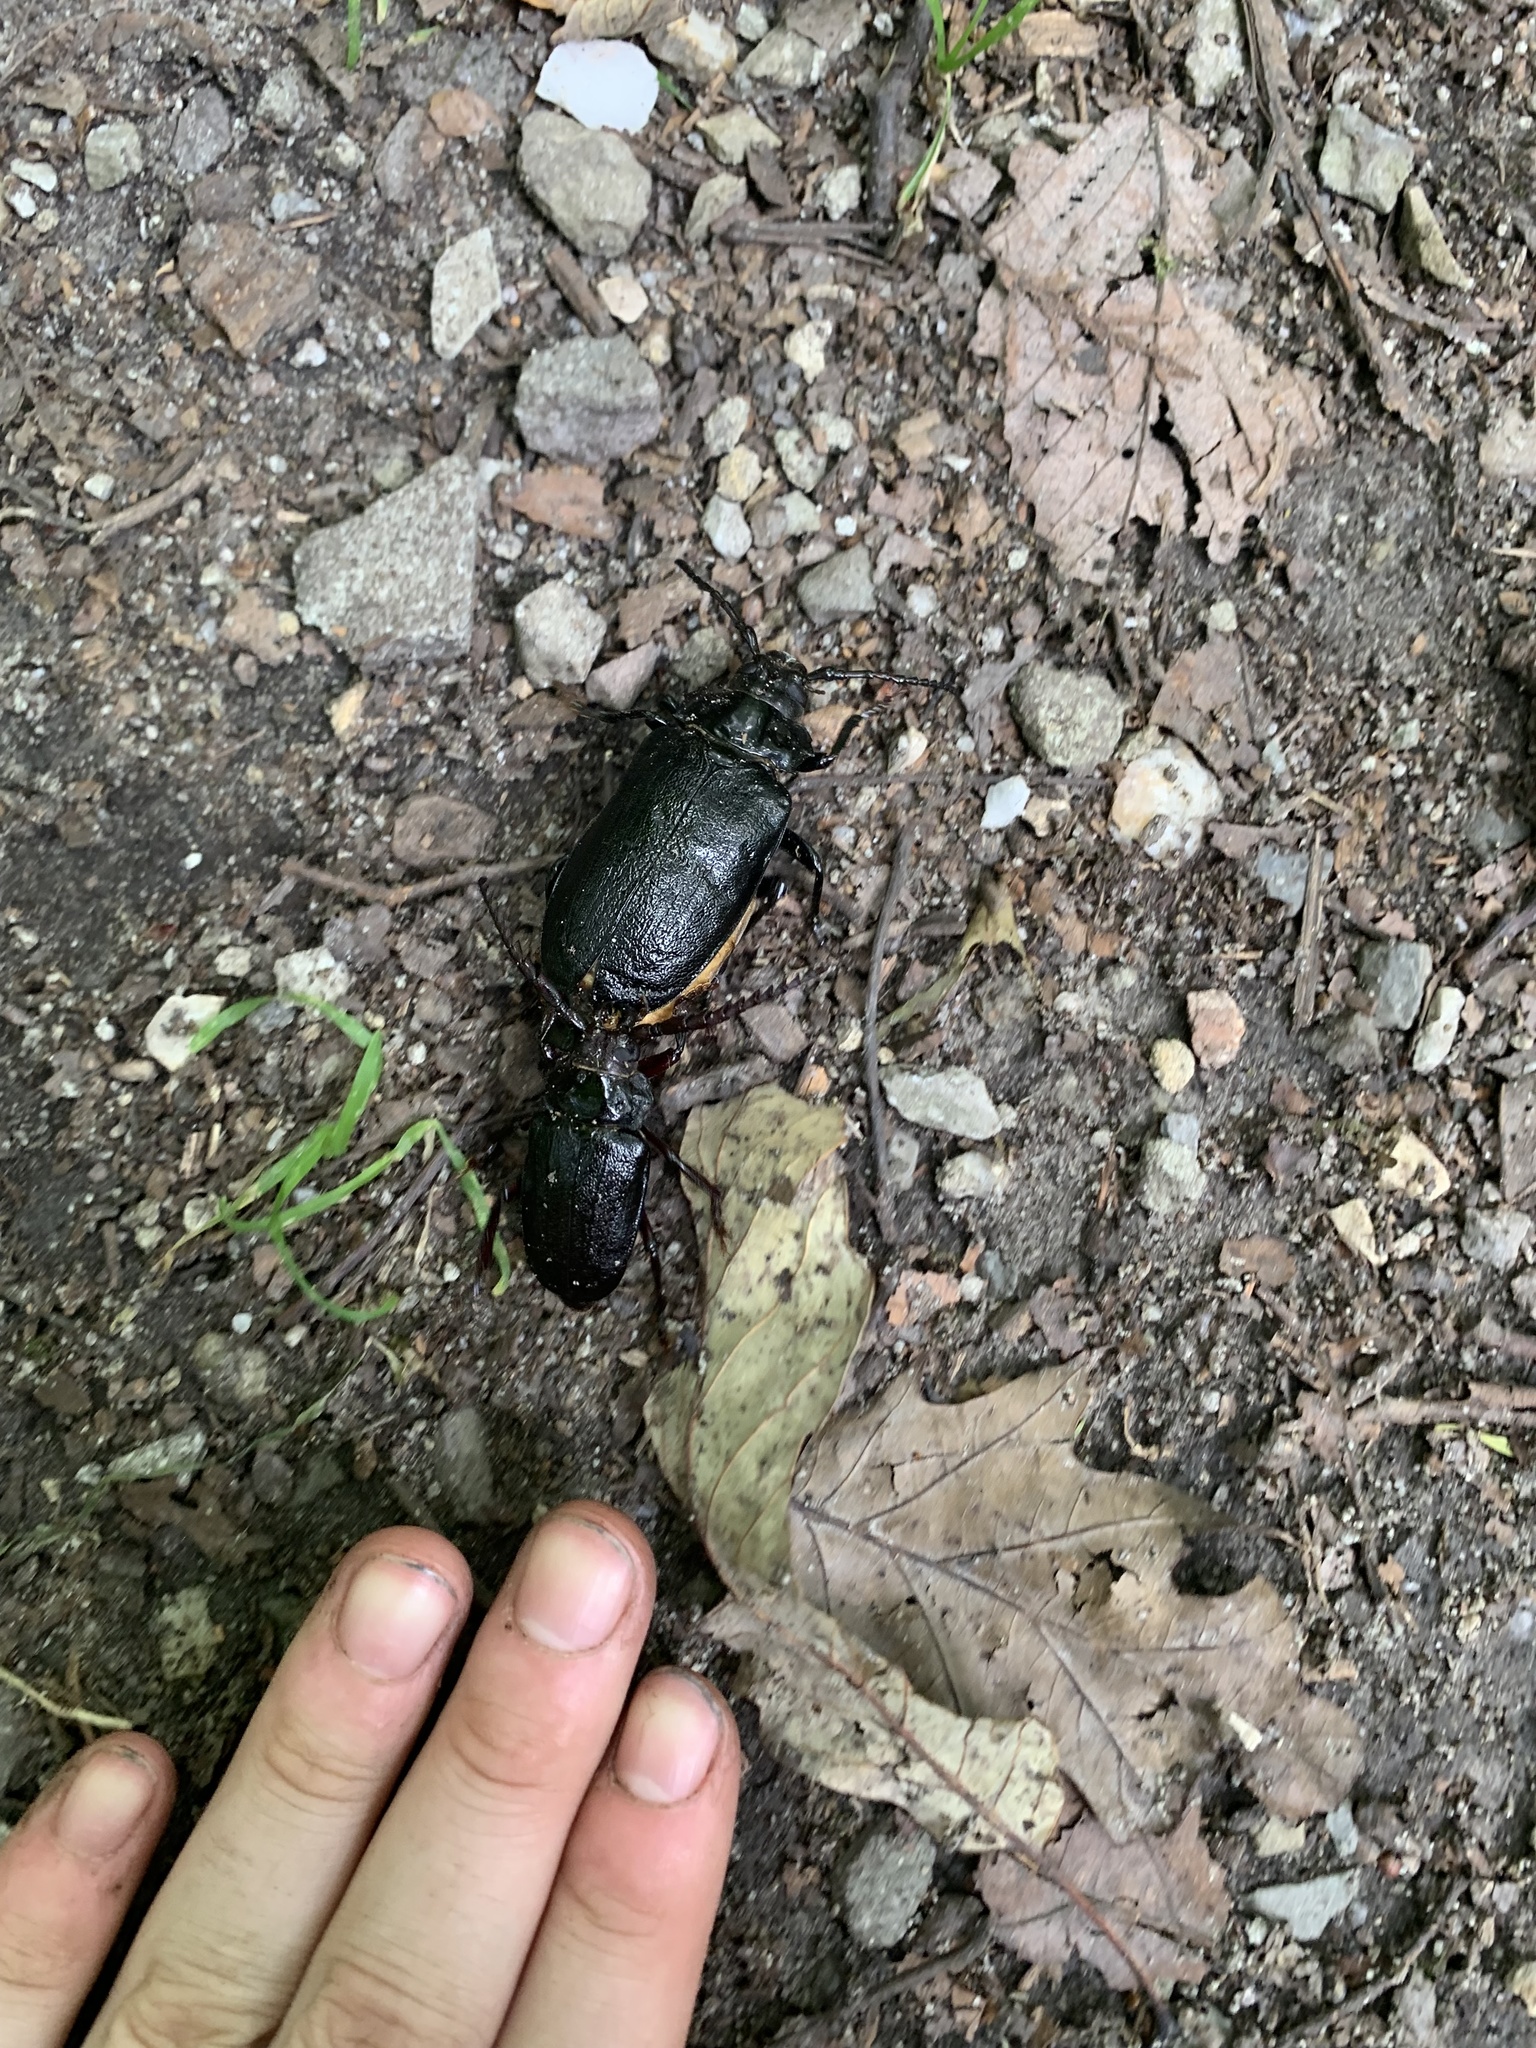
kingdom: Animalia
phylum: Arthropoda
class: Insecta
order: Coleoptera
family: Cerambycidae
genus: Prionus
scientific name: Prionus laticollis
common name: Broad necked prionus
